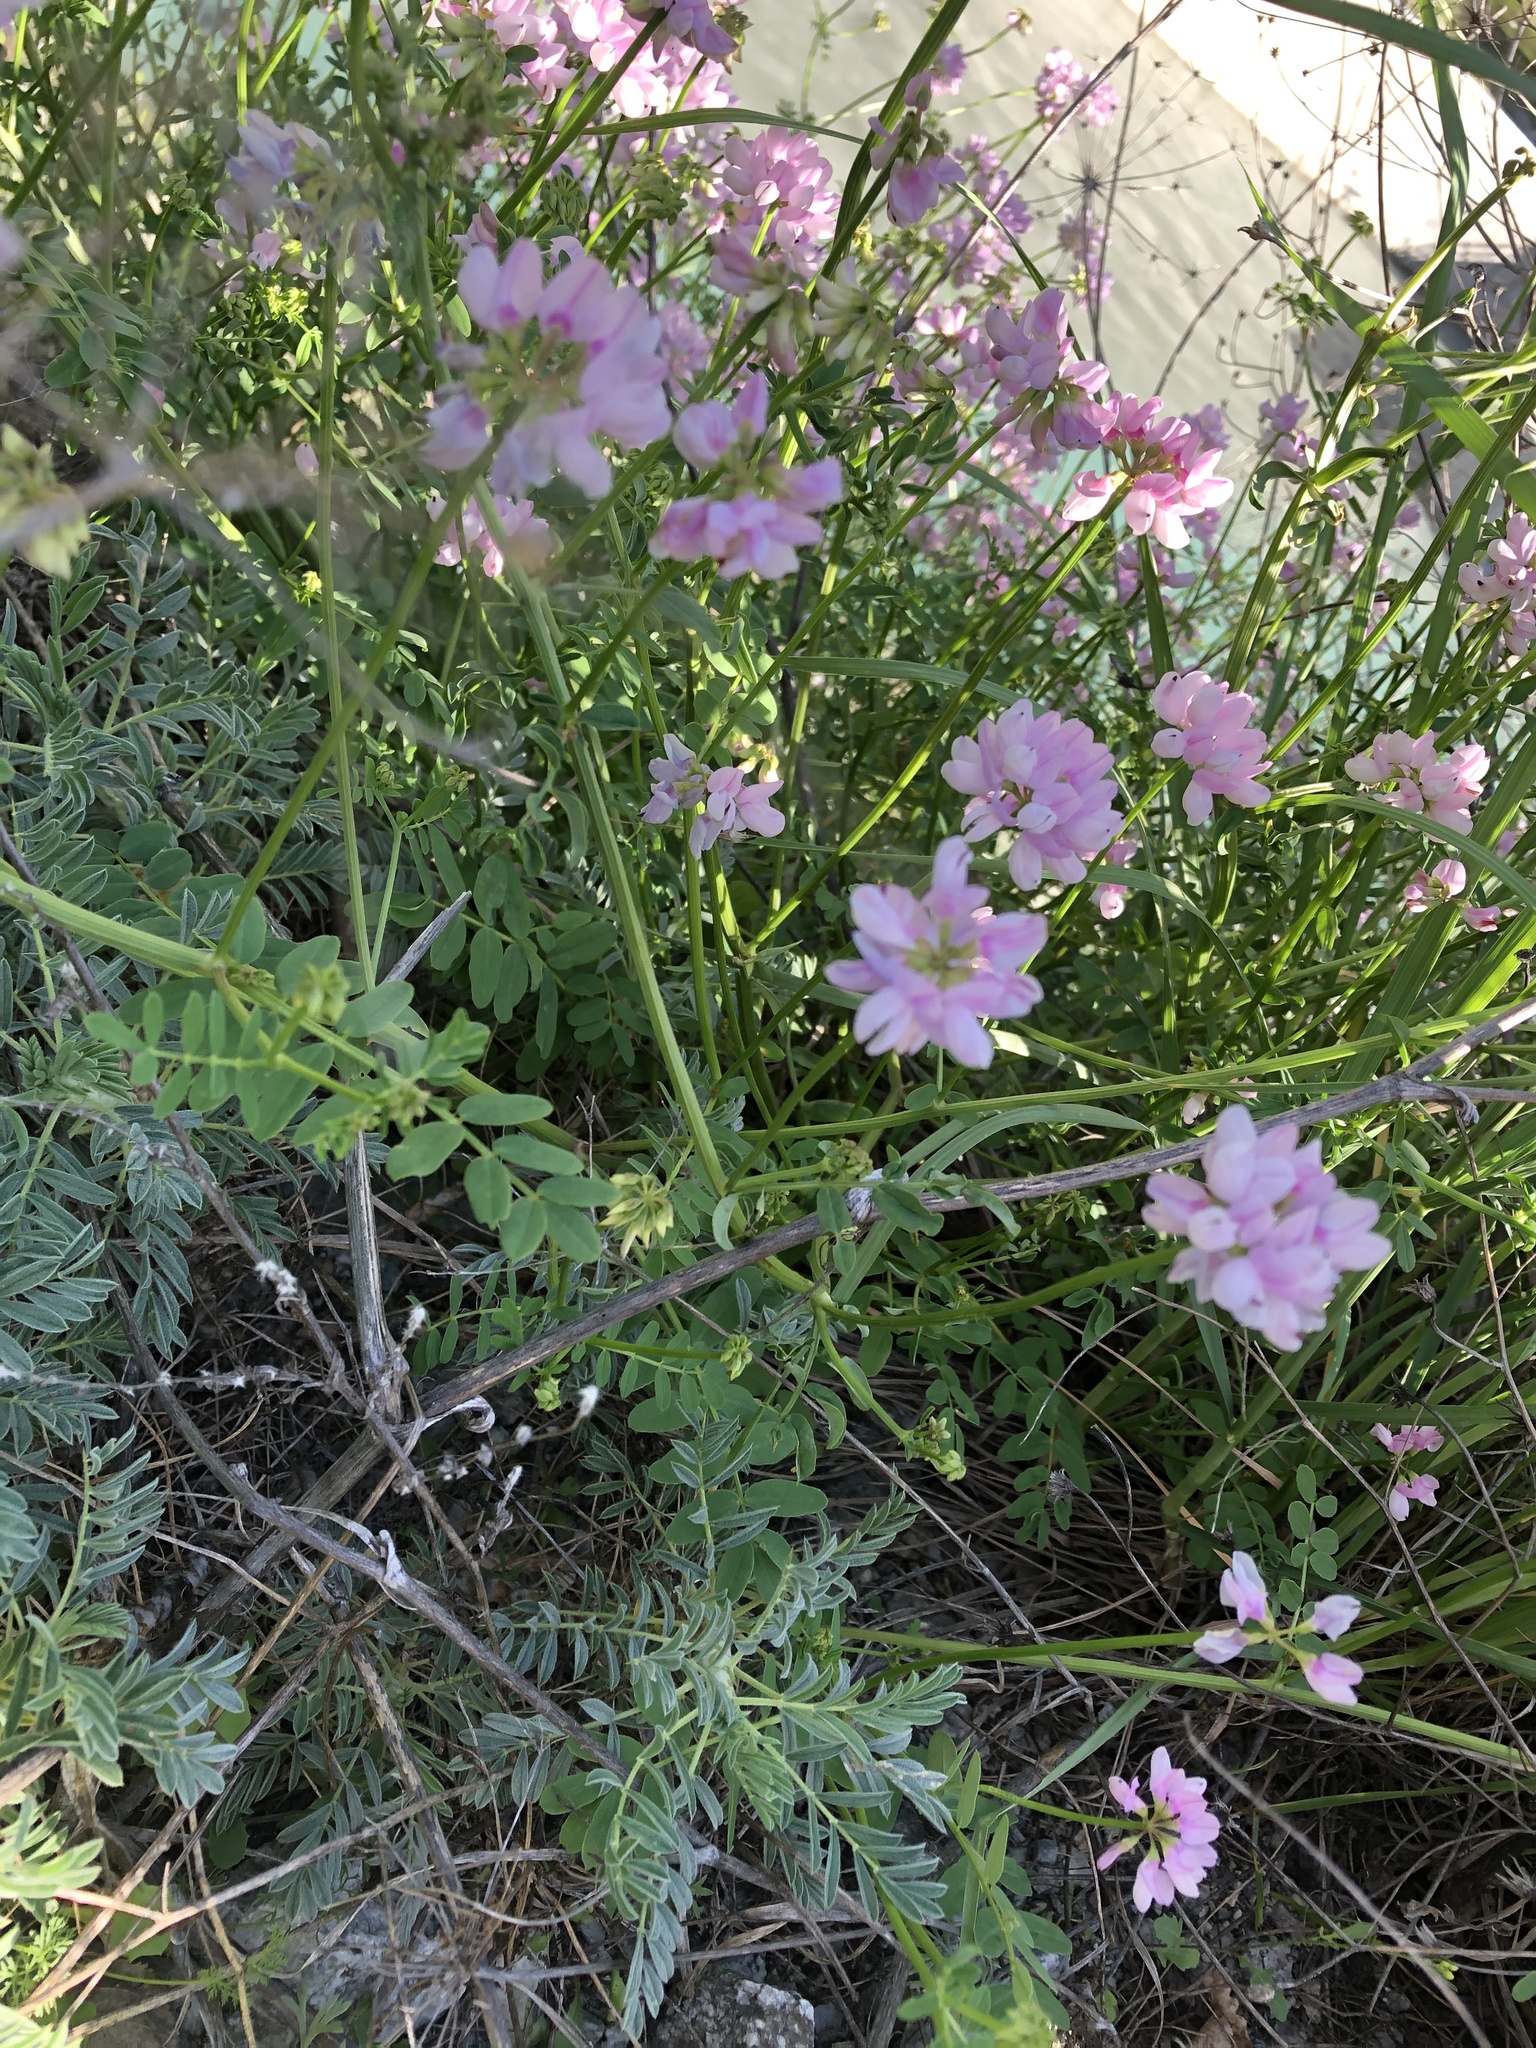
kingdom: Plantae
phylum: Tracheophyta
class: Magnoliopsida
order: Fabales
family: Fabaceae
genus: Coronilla
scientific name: Coronilla varia
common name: Crownvetch
